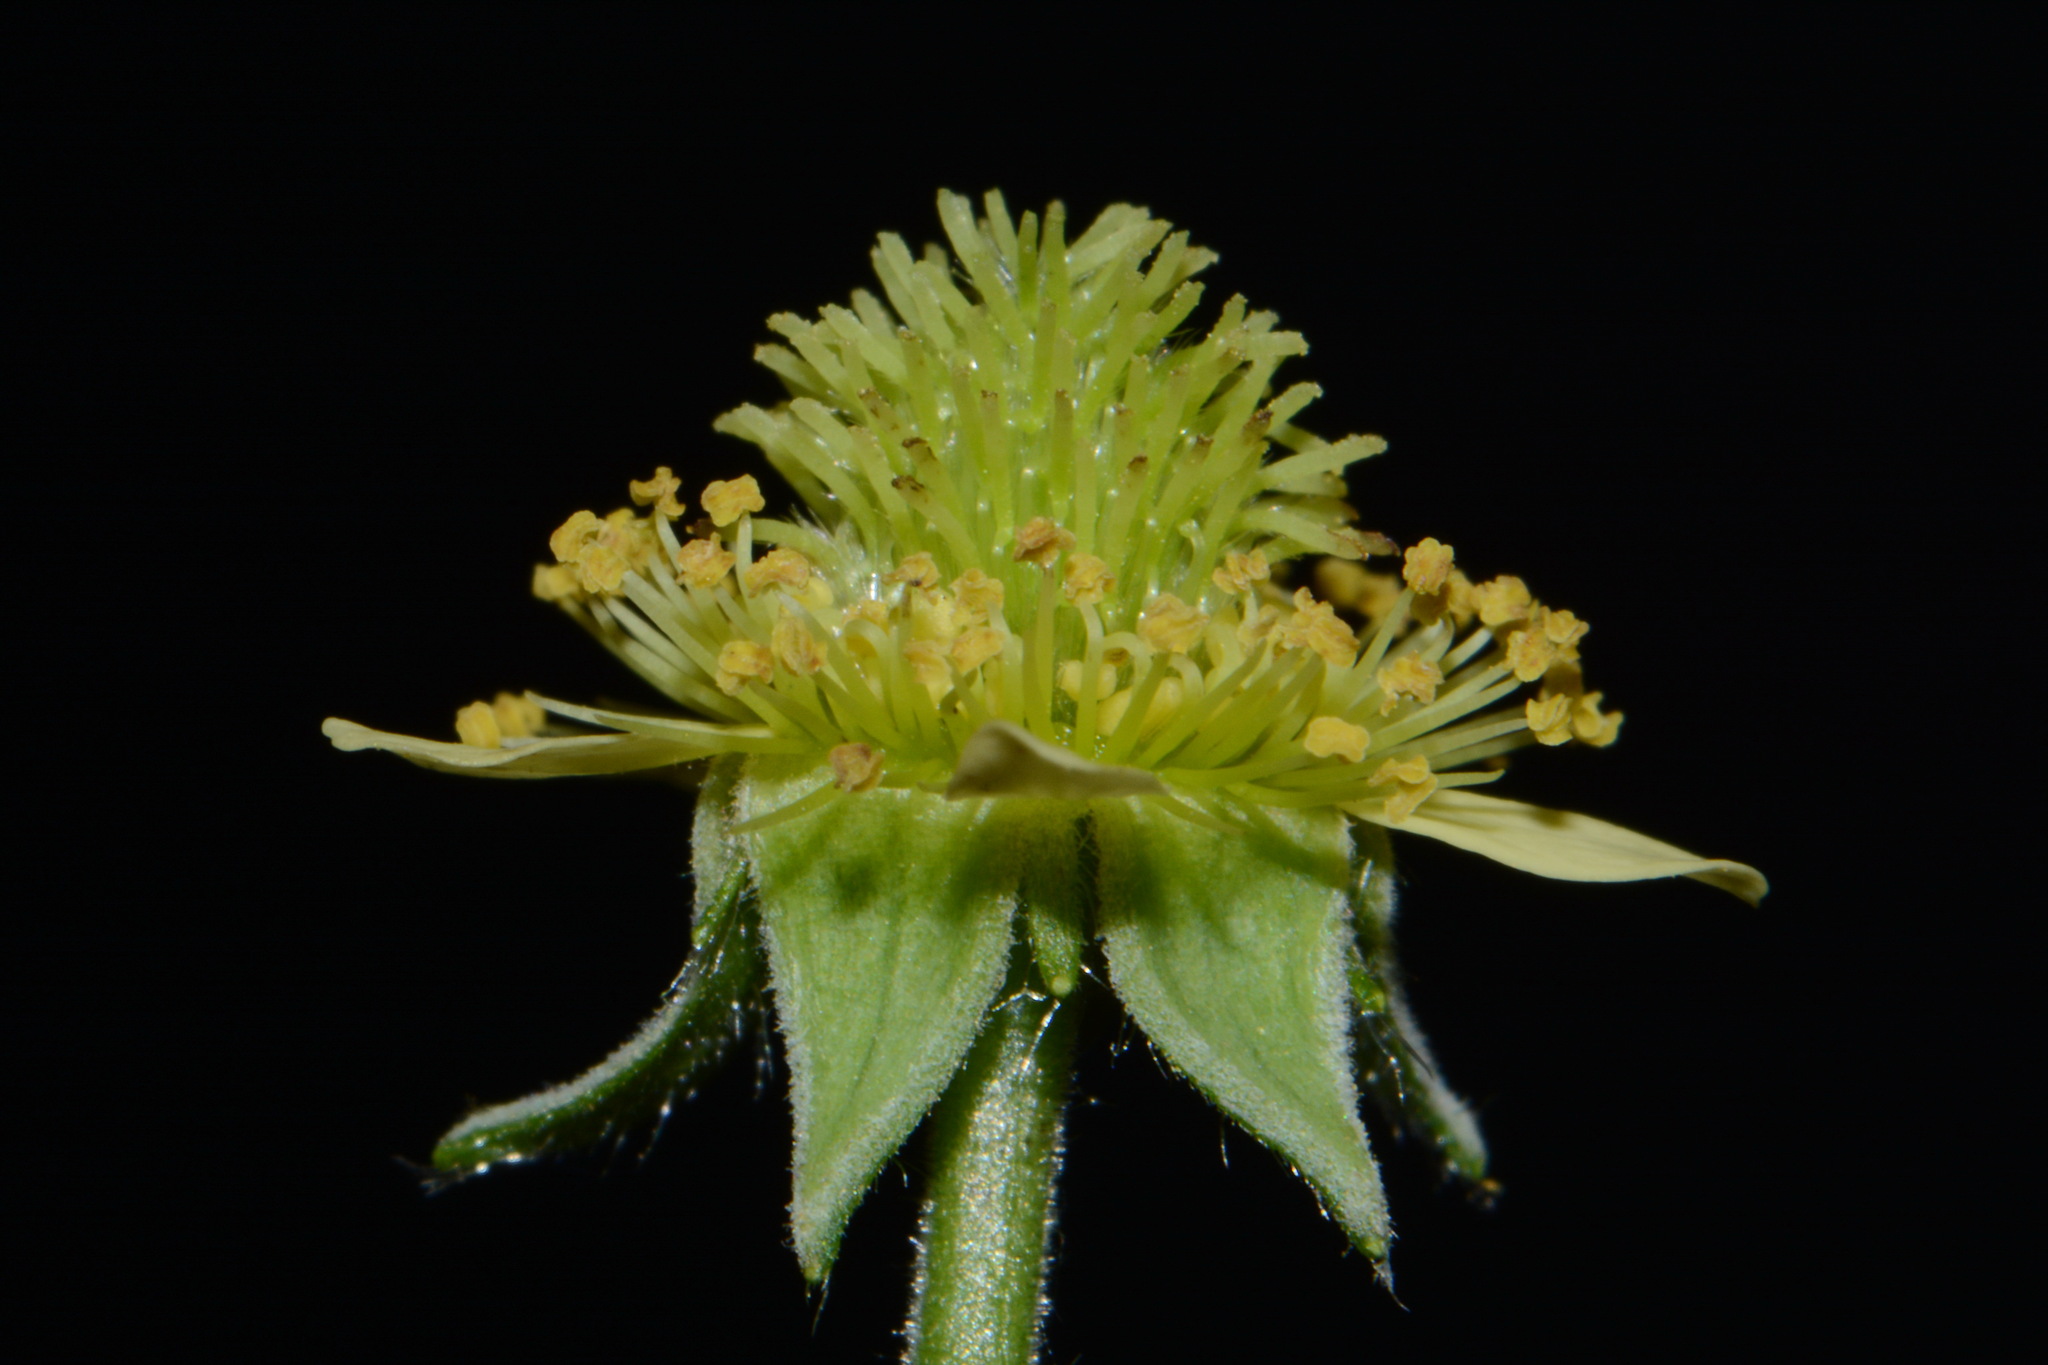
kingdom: Plantae
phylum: Tracheophyta
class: Magnoliopsida
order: Rosales
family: Rosaceae
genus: Geum
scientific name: Geum virginianum
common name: Cream avens
